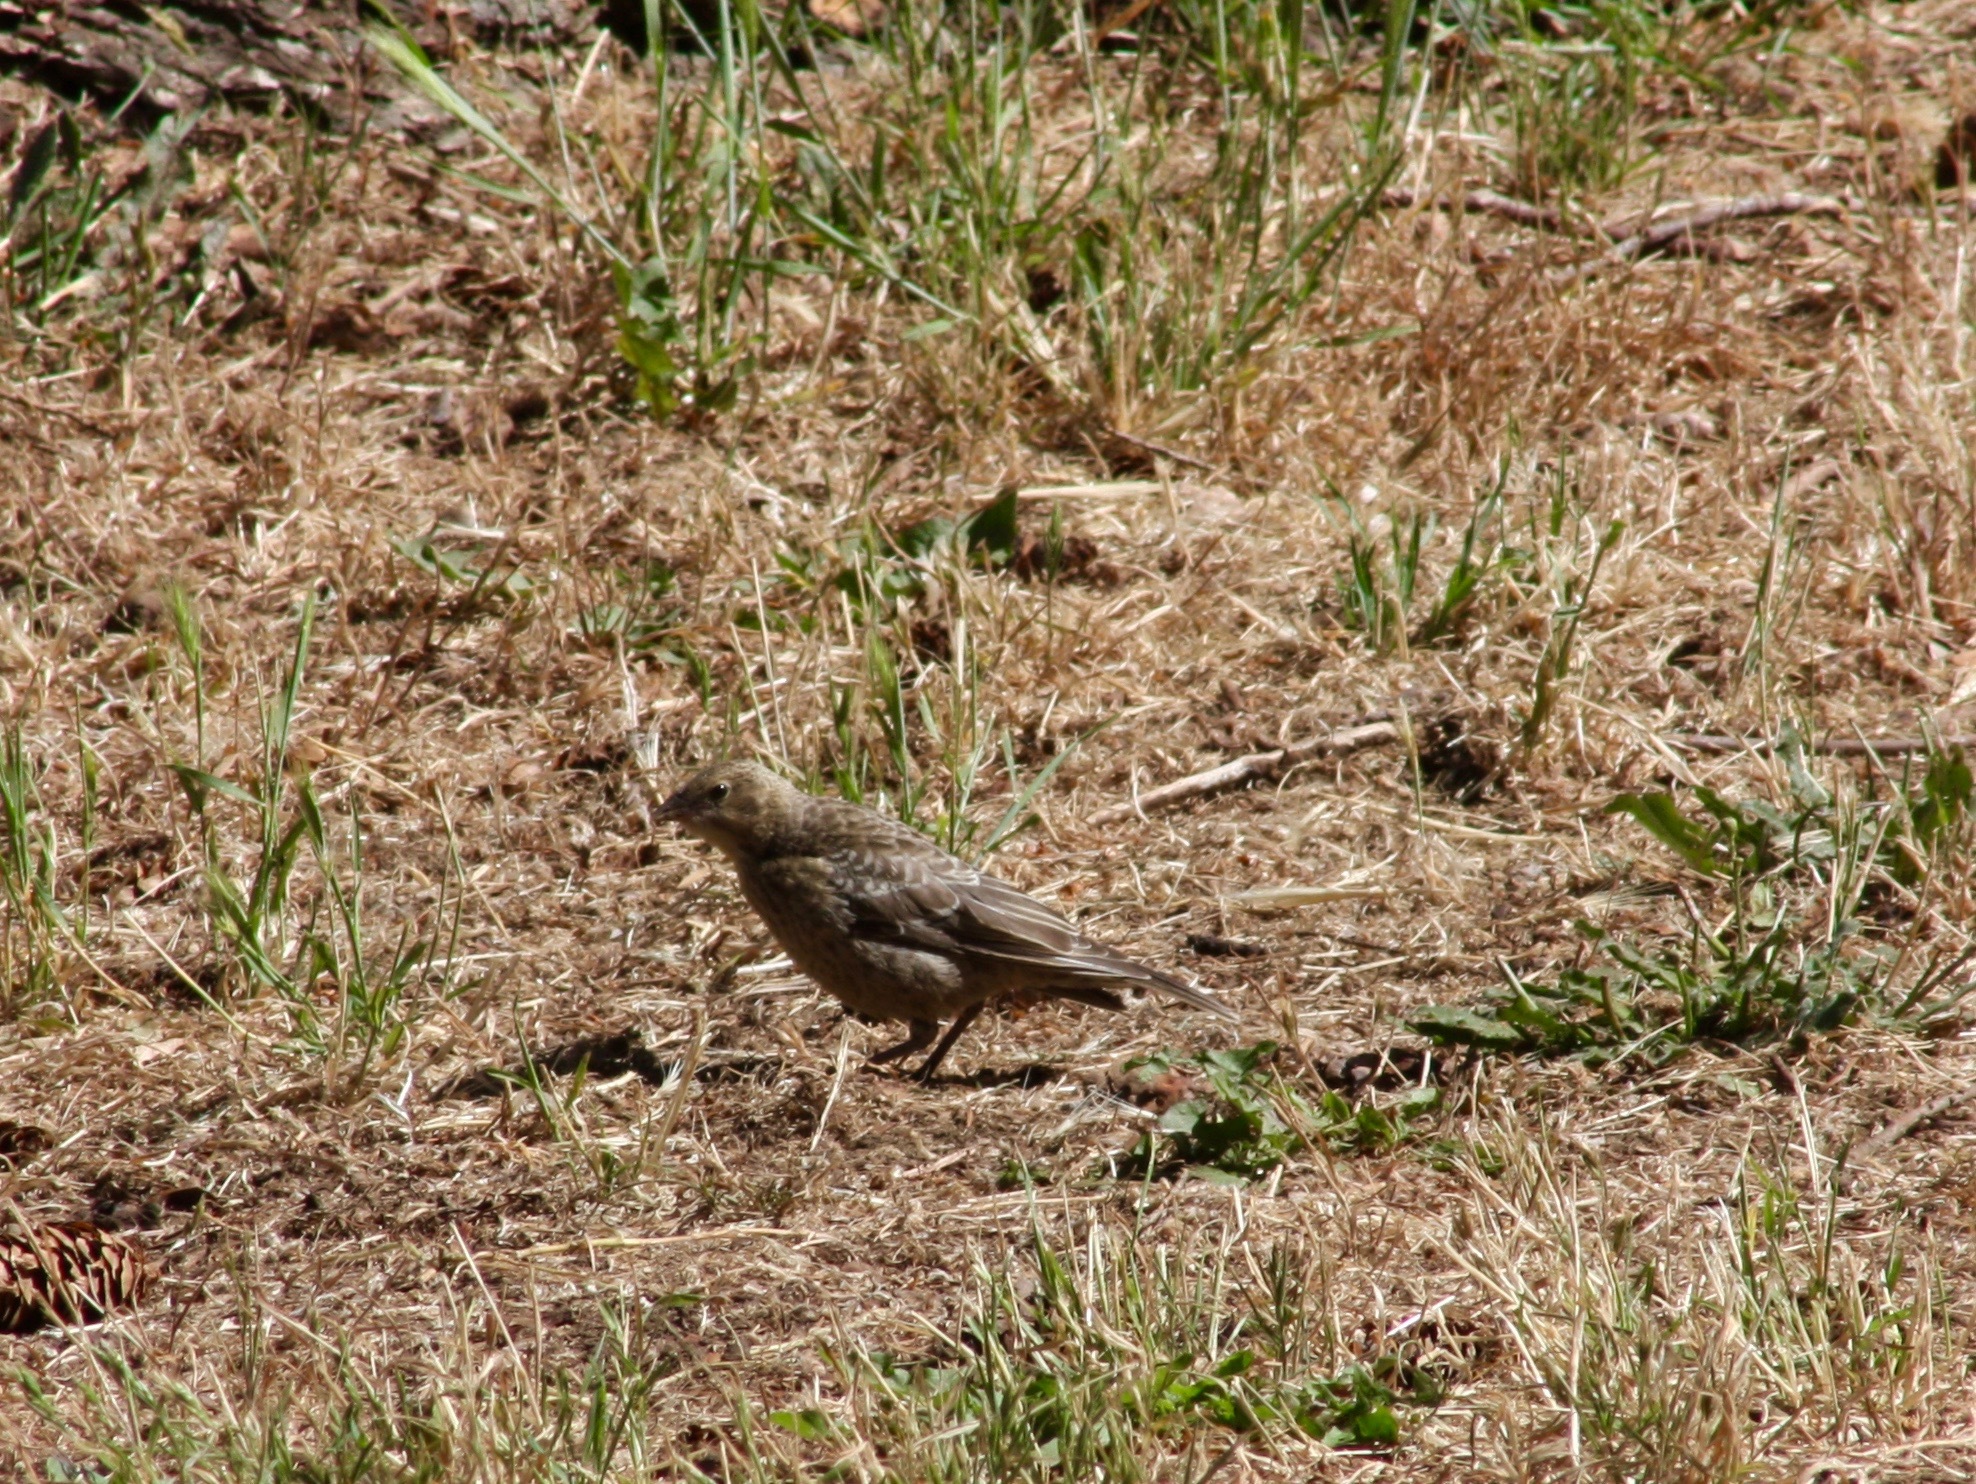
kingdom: Animalia
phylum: Chordata
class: Aves
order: Passeriformes
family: Icteridae
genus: Molothrus
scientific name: Molothrus ater
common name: Brown-headed cowbird
